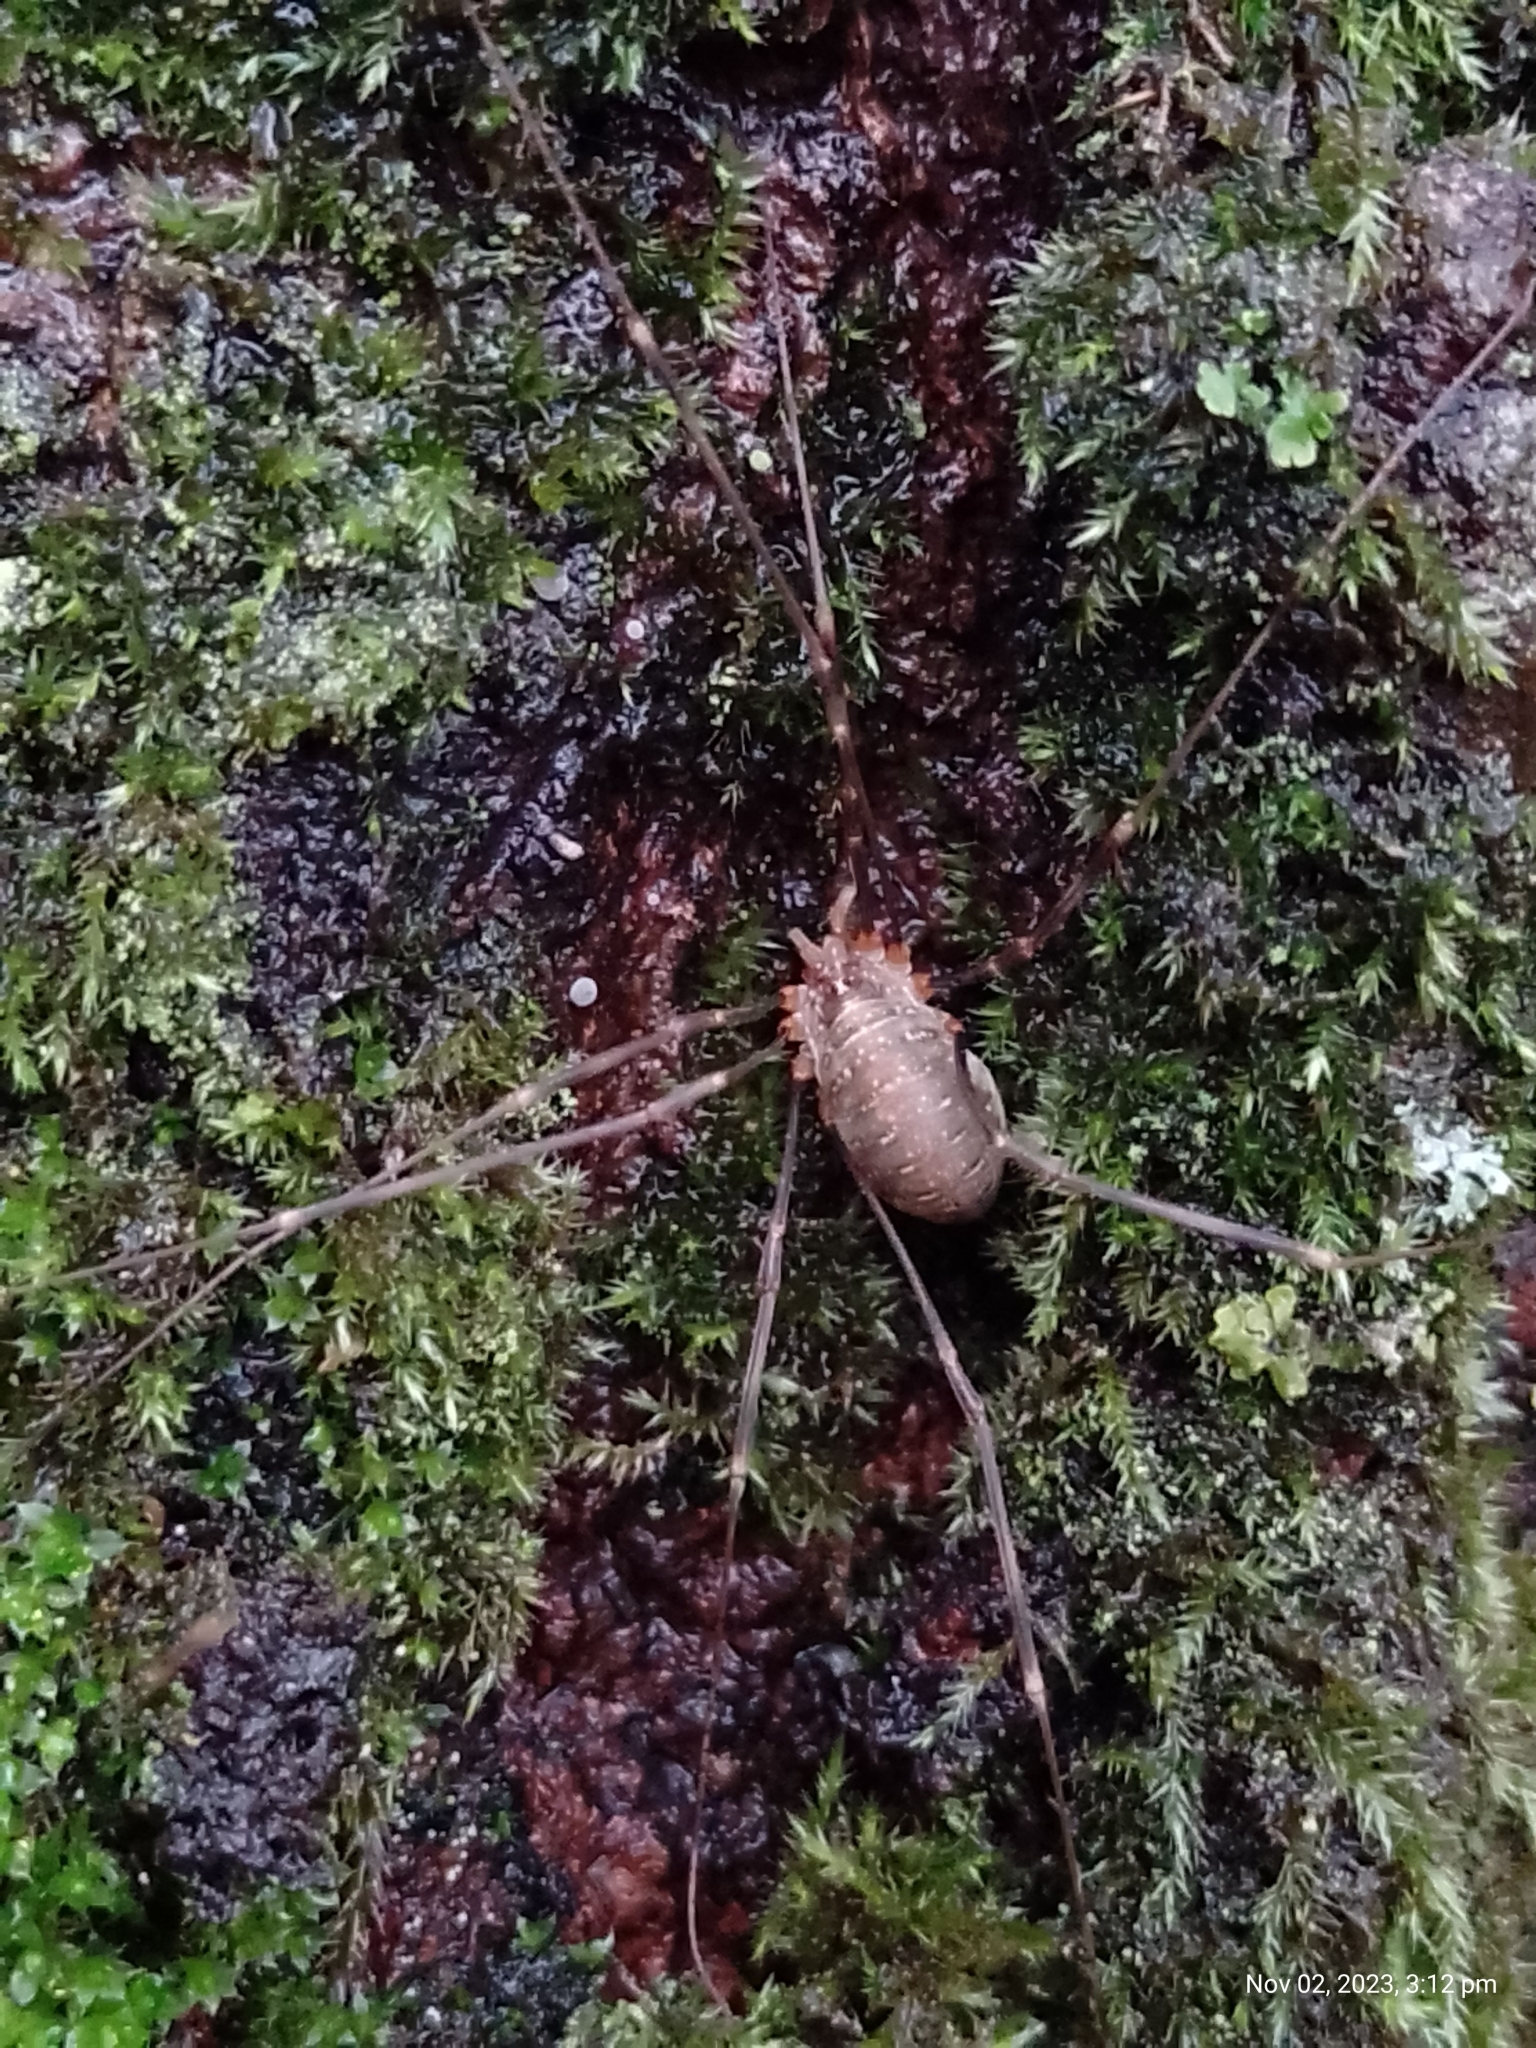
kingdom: Animalia
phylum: Arthropoda
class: Arachnida
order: Opiliones
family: Phalangiidae
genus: Opilio
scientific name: Opilio canestrinii
